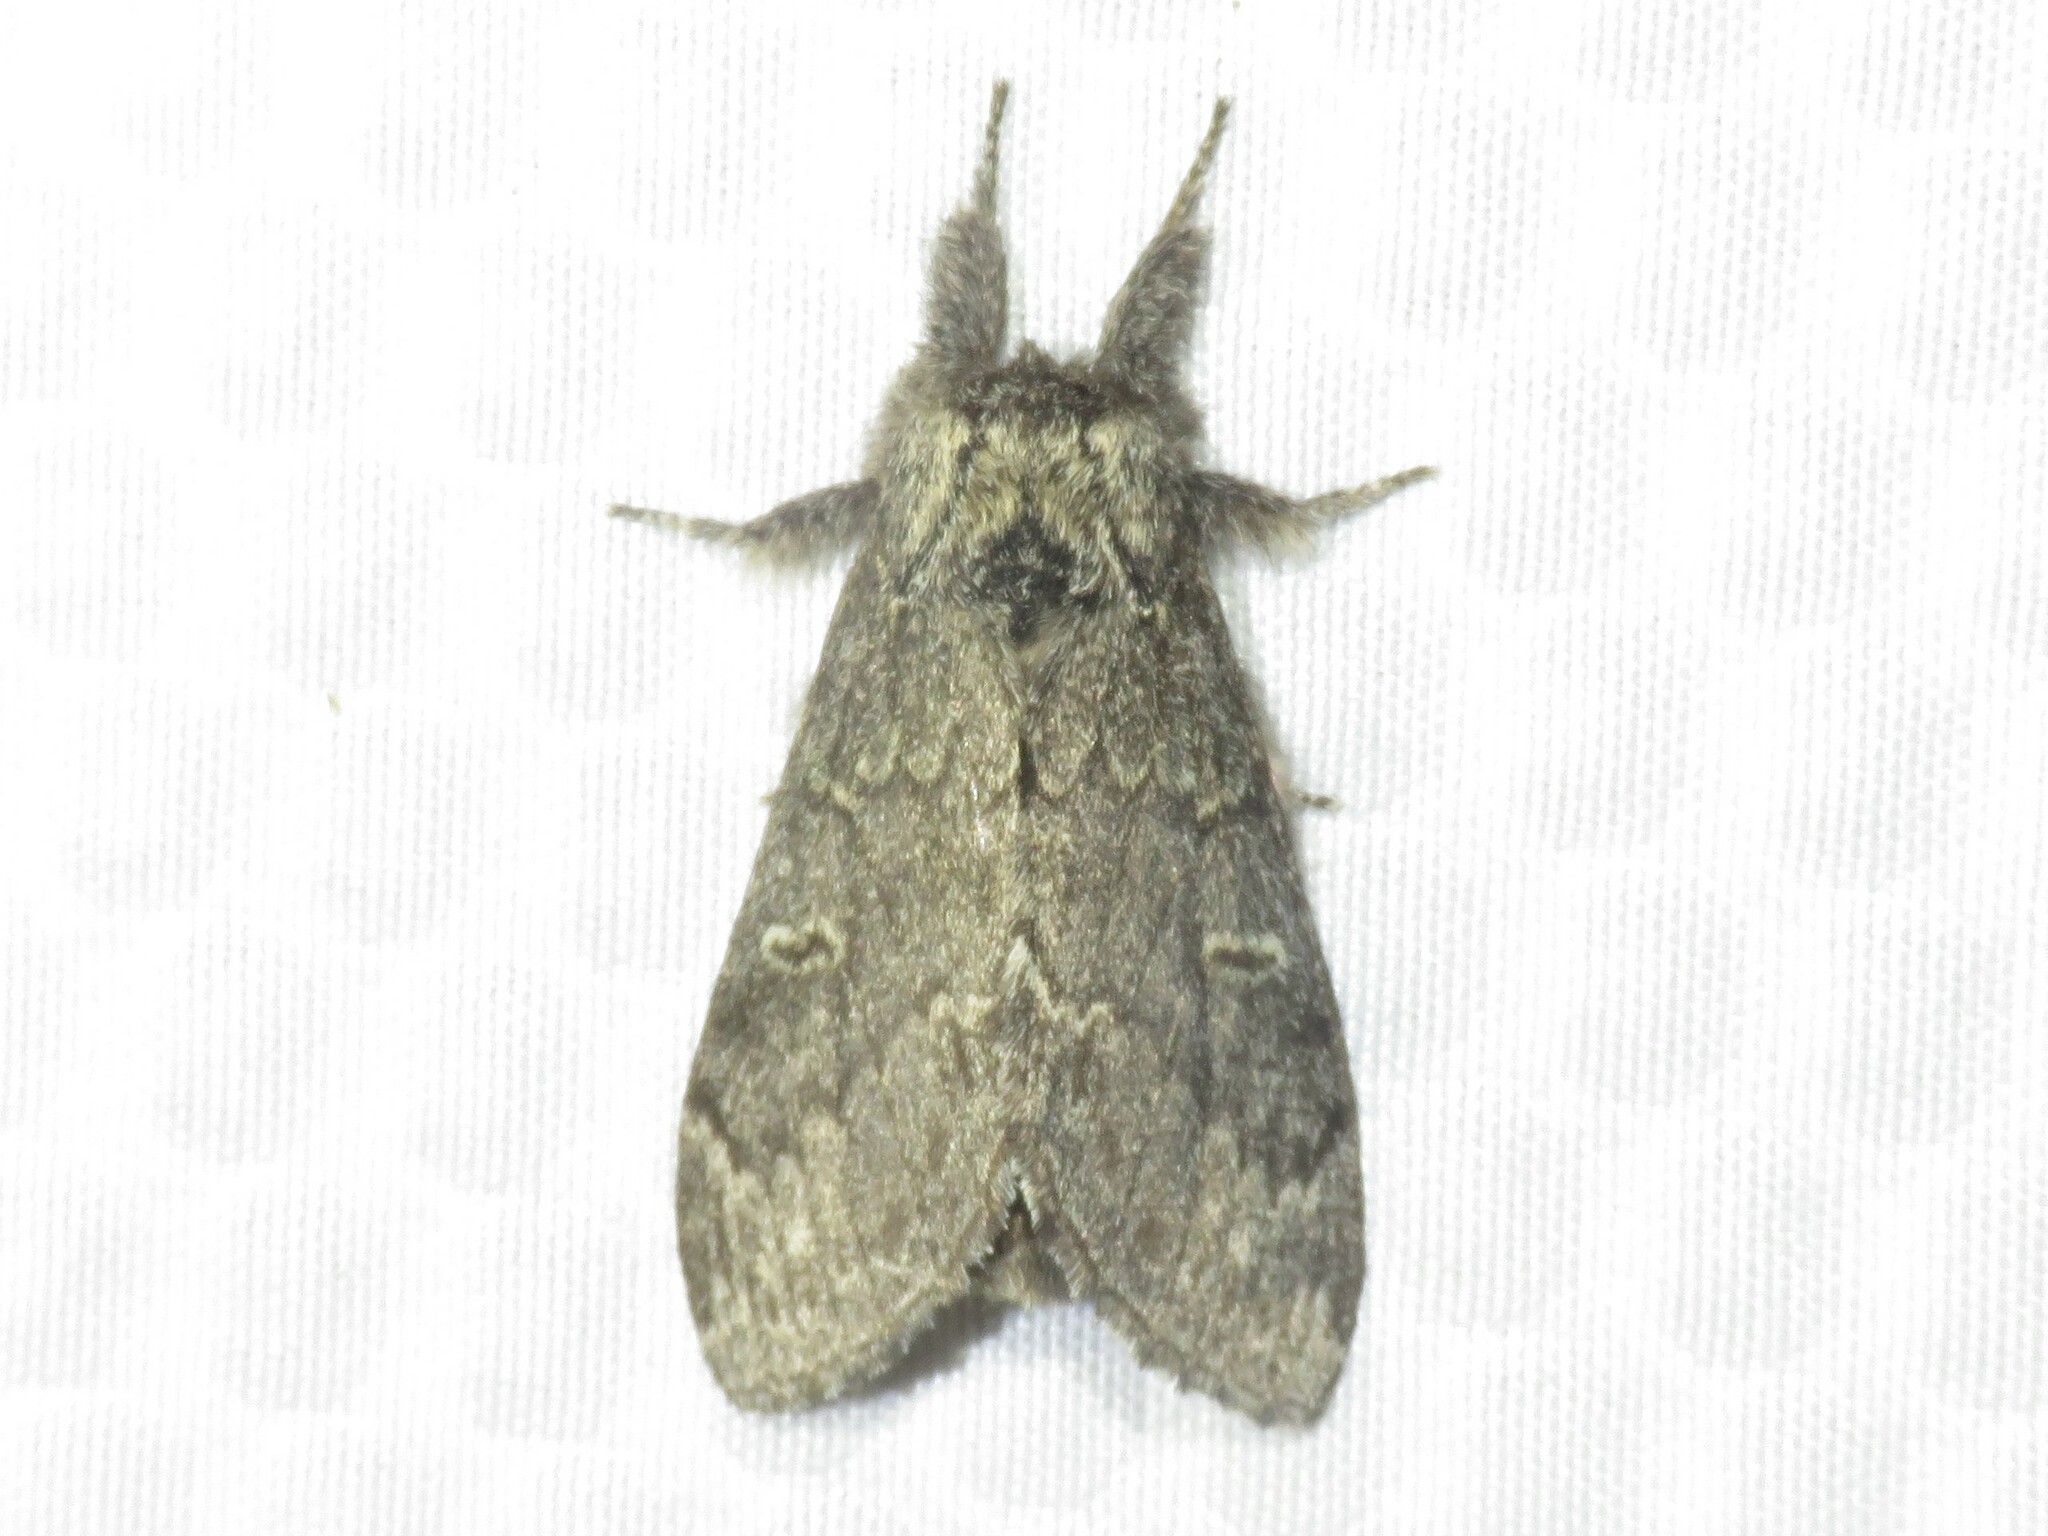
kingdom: Animalia
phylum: Arthropoda
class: Insecta
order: Lepidoptera
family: Notodontidae
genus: Notodonta
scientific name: Notodonta torva
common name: Large dark prominent
